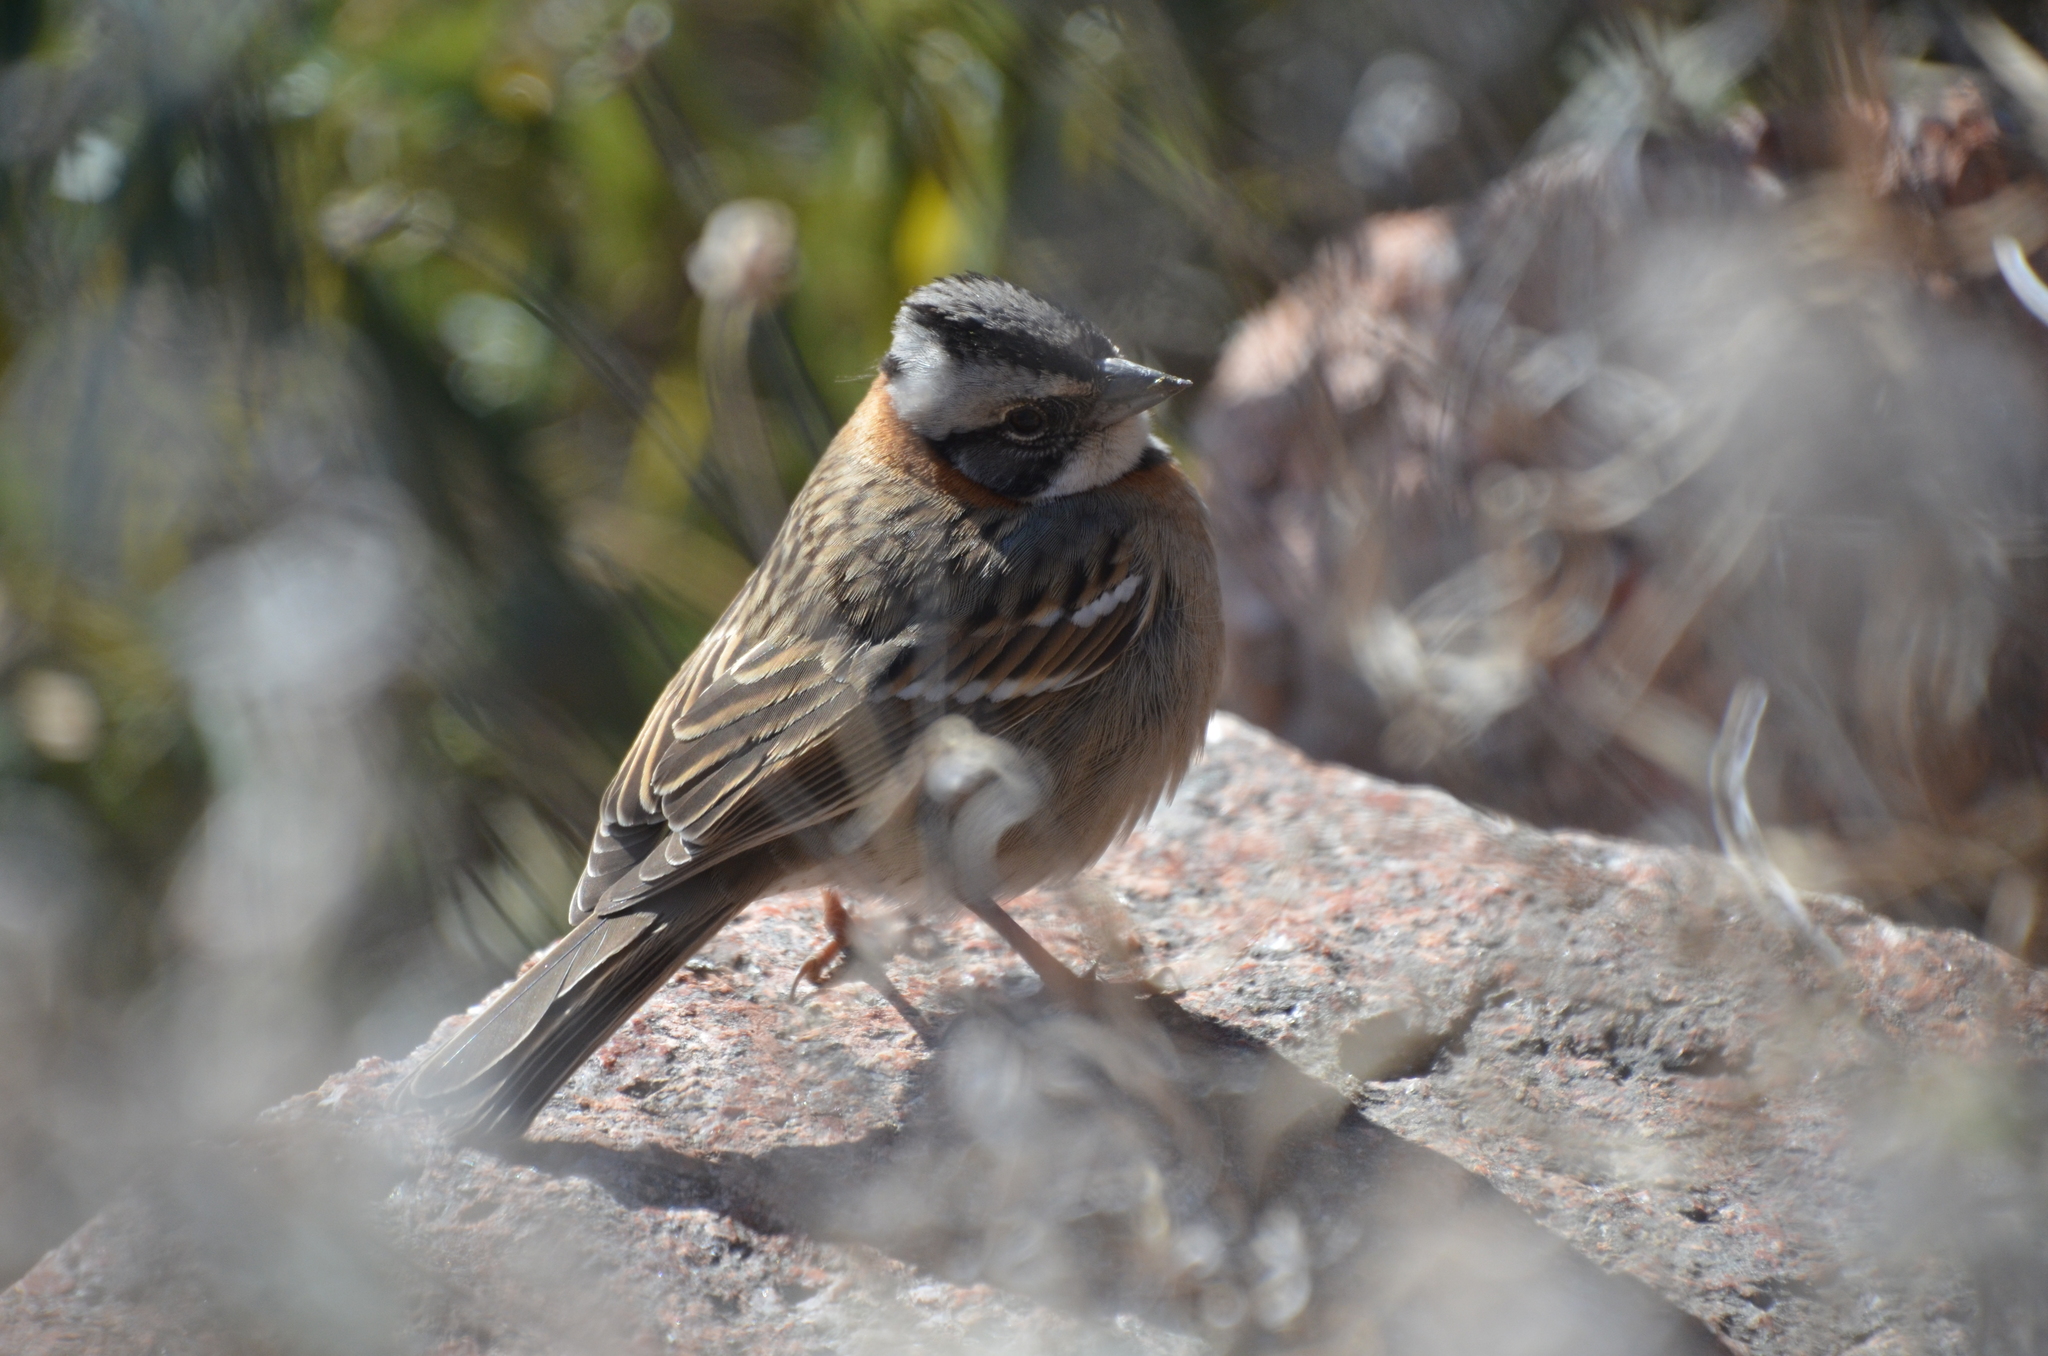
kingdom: Animalia
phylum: Chordata
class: Aves
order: Passeriformes
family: Passerellidae
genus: Zonotrichia
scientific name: Zonotrichia capensis
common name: Rufous-collared sparrow
